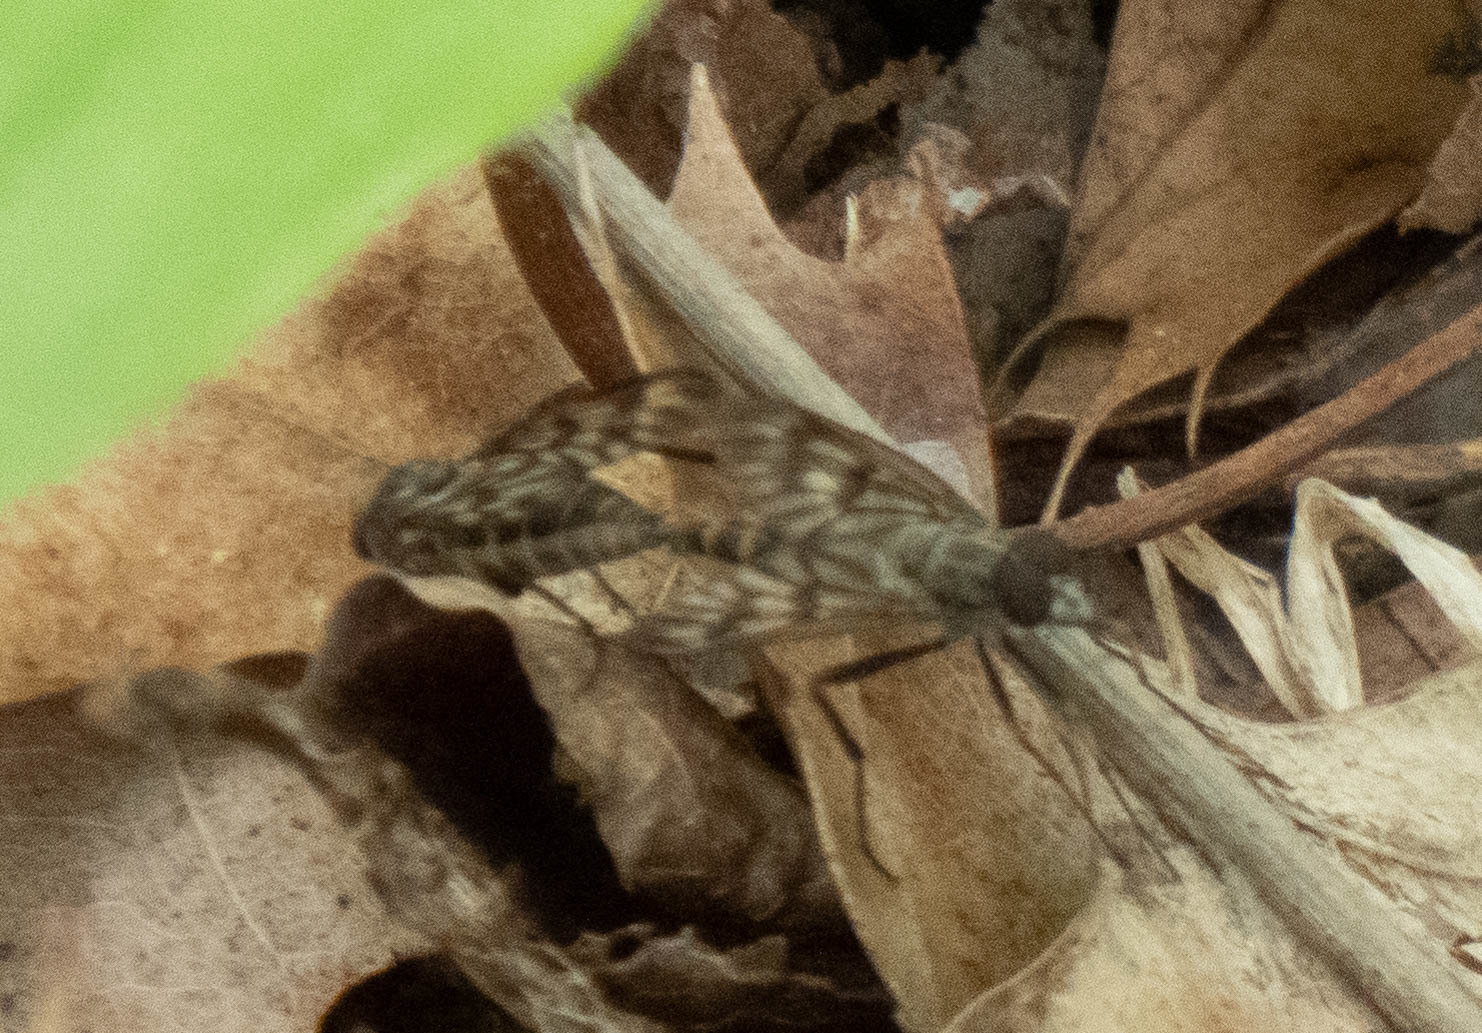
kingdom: Animalia
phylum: Arthropoda
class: Insecta
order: Diptera
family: Rhagionidae
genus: Rhagio
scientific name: Rhagio mystaceus
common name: Common snipe fly
